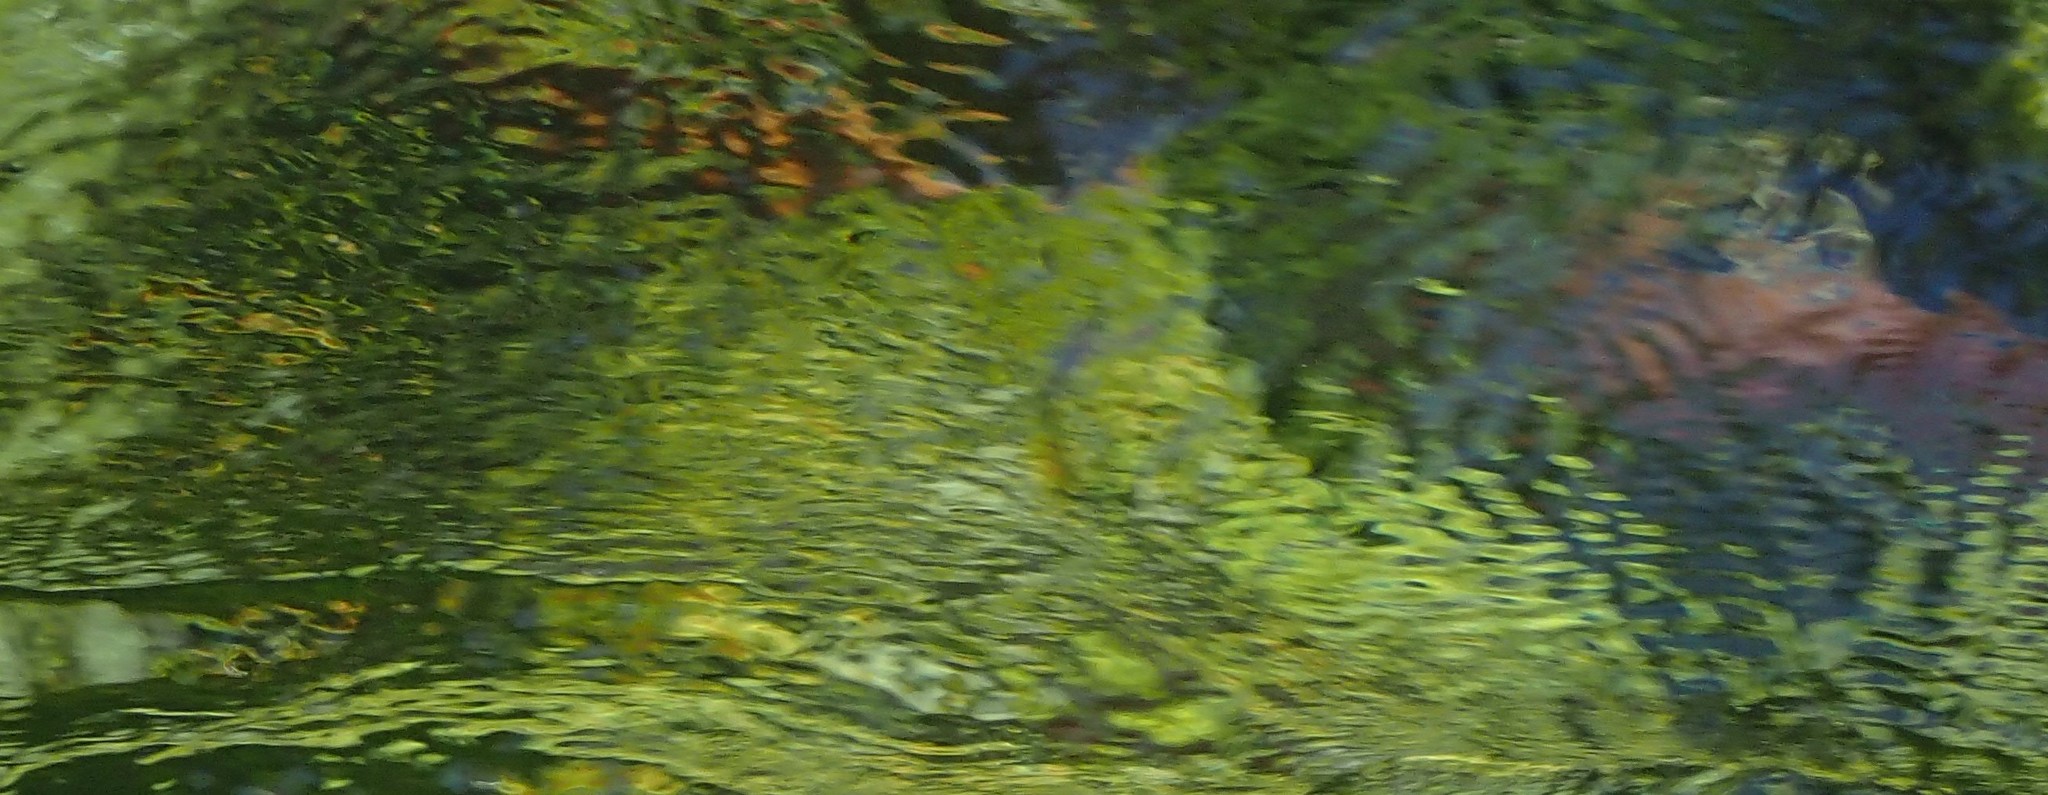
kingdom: Animalia
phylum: Chordata
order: Salmoniformes
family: Salmonidae
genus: Oncorhynchus
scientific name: Oncorhynchus nerka
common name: Sockeye salmon
